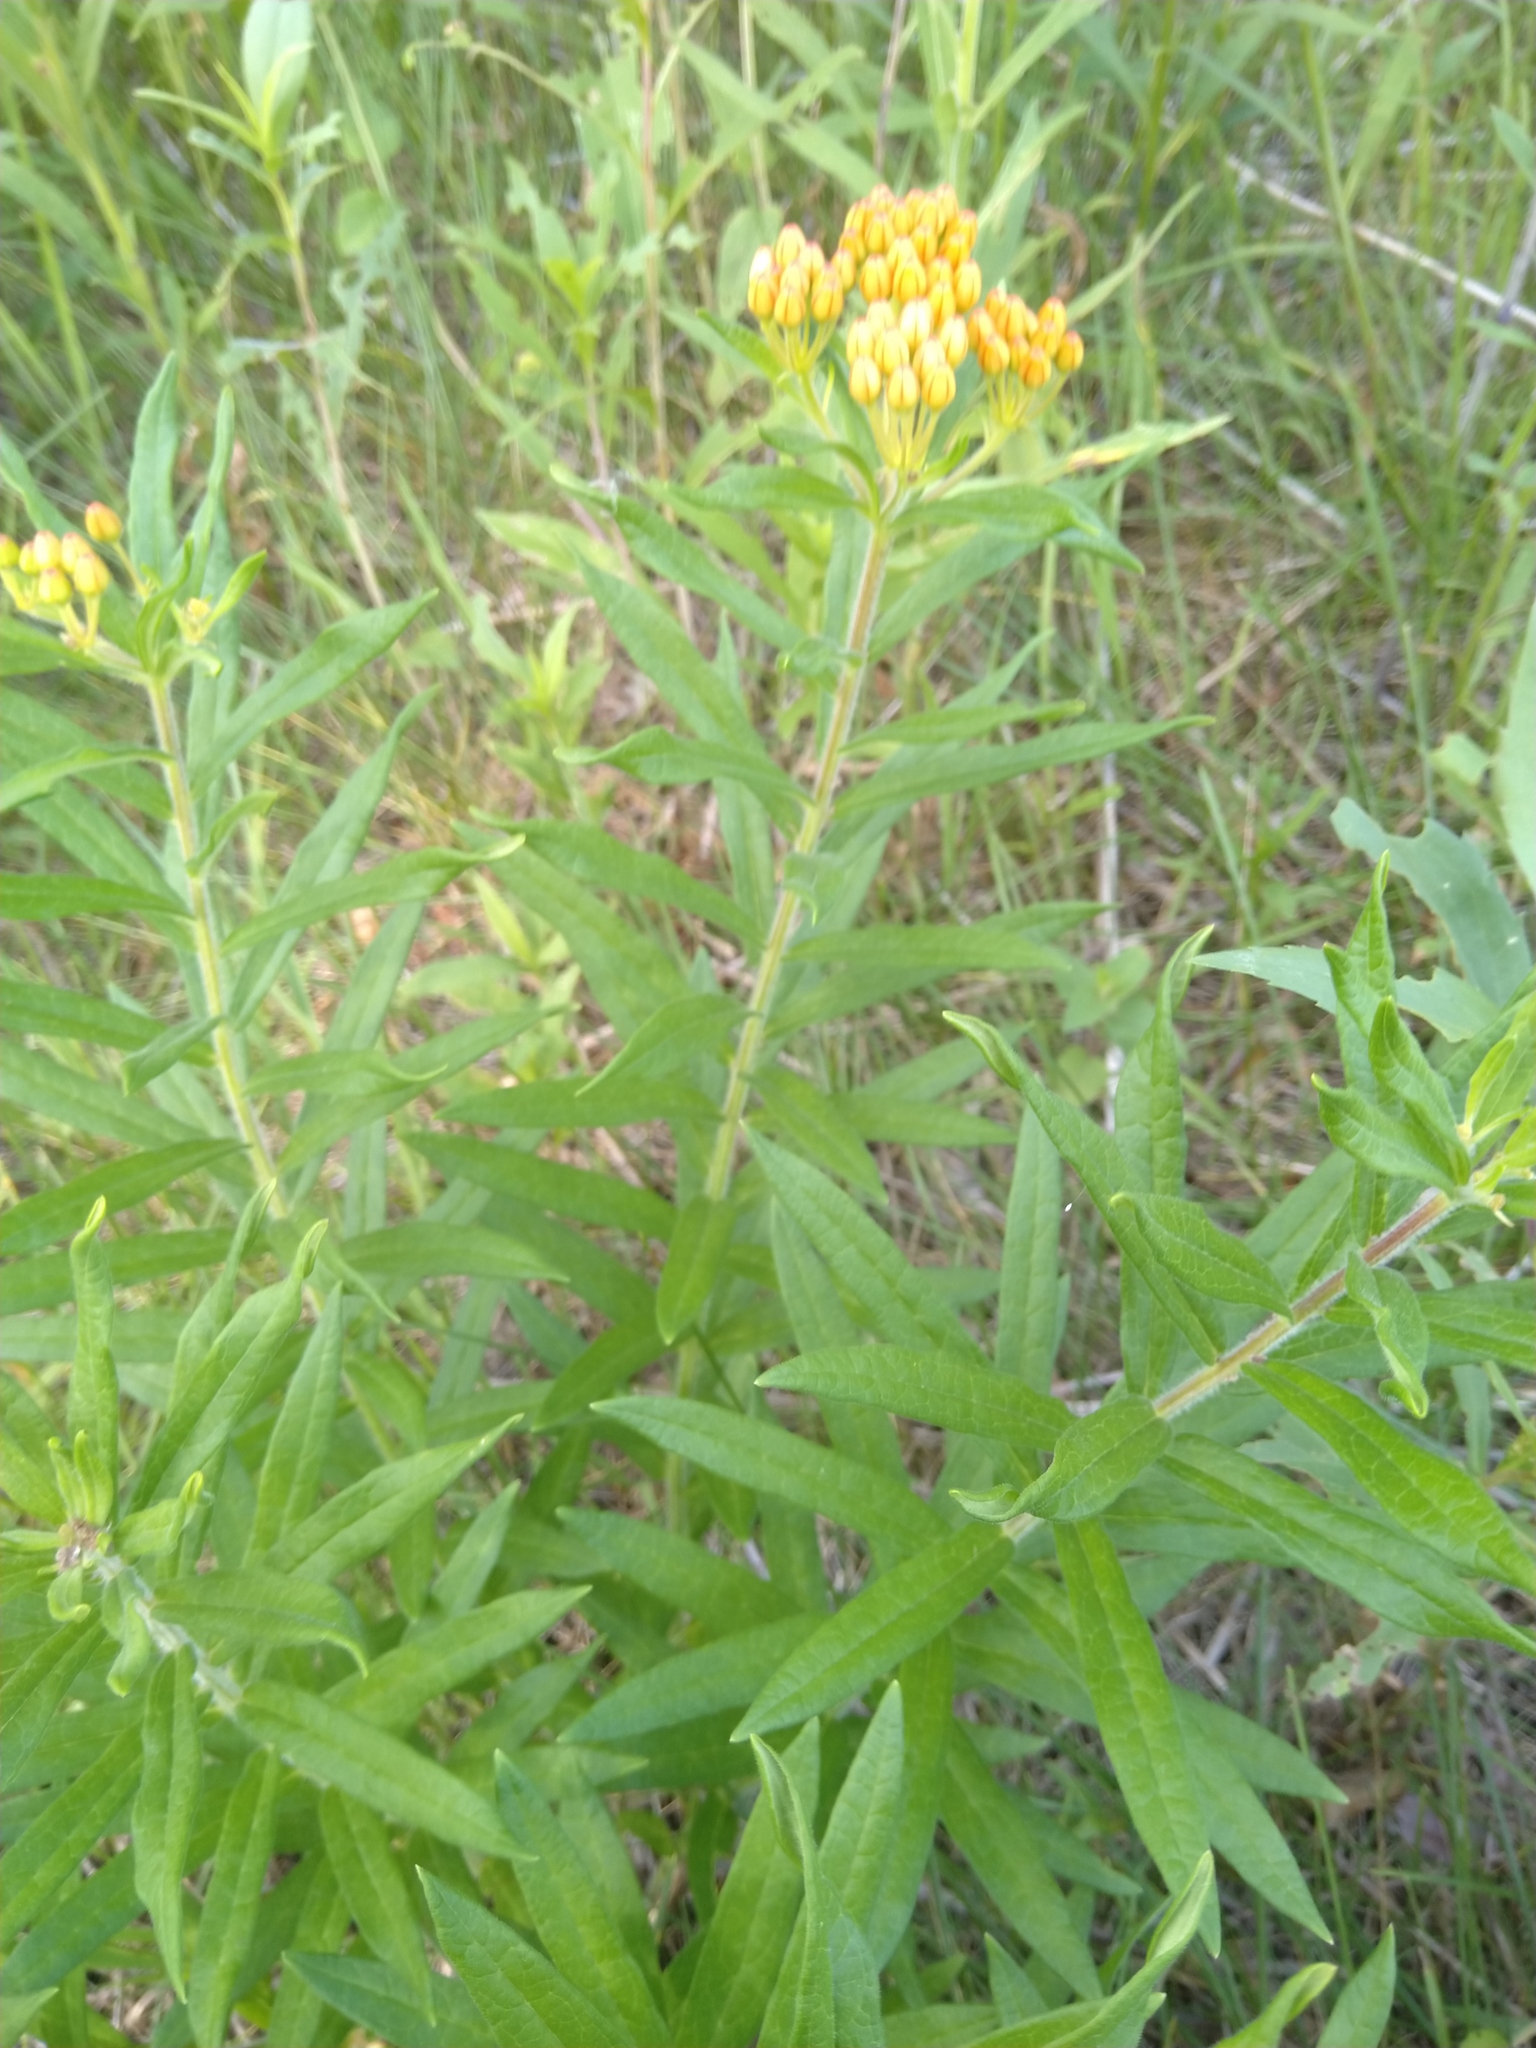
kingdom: Plantae
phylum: Tracheophyta
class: Magnoliopsida
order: Gentianales
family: Apocynaceae
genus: Asclepias
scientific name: Asclepias tuberosa
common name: Butterfly milkweed
